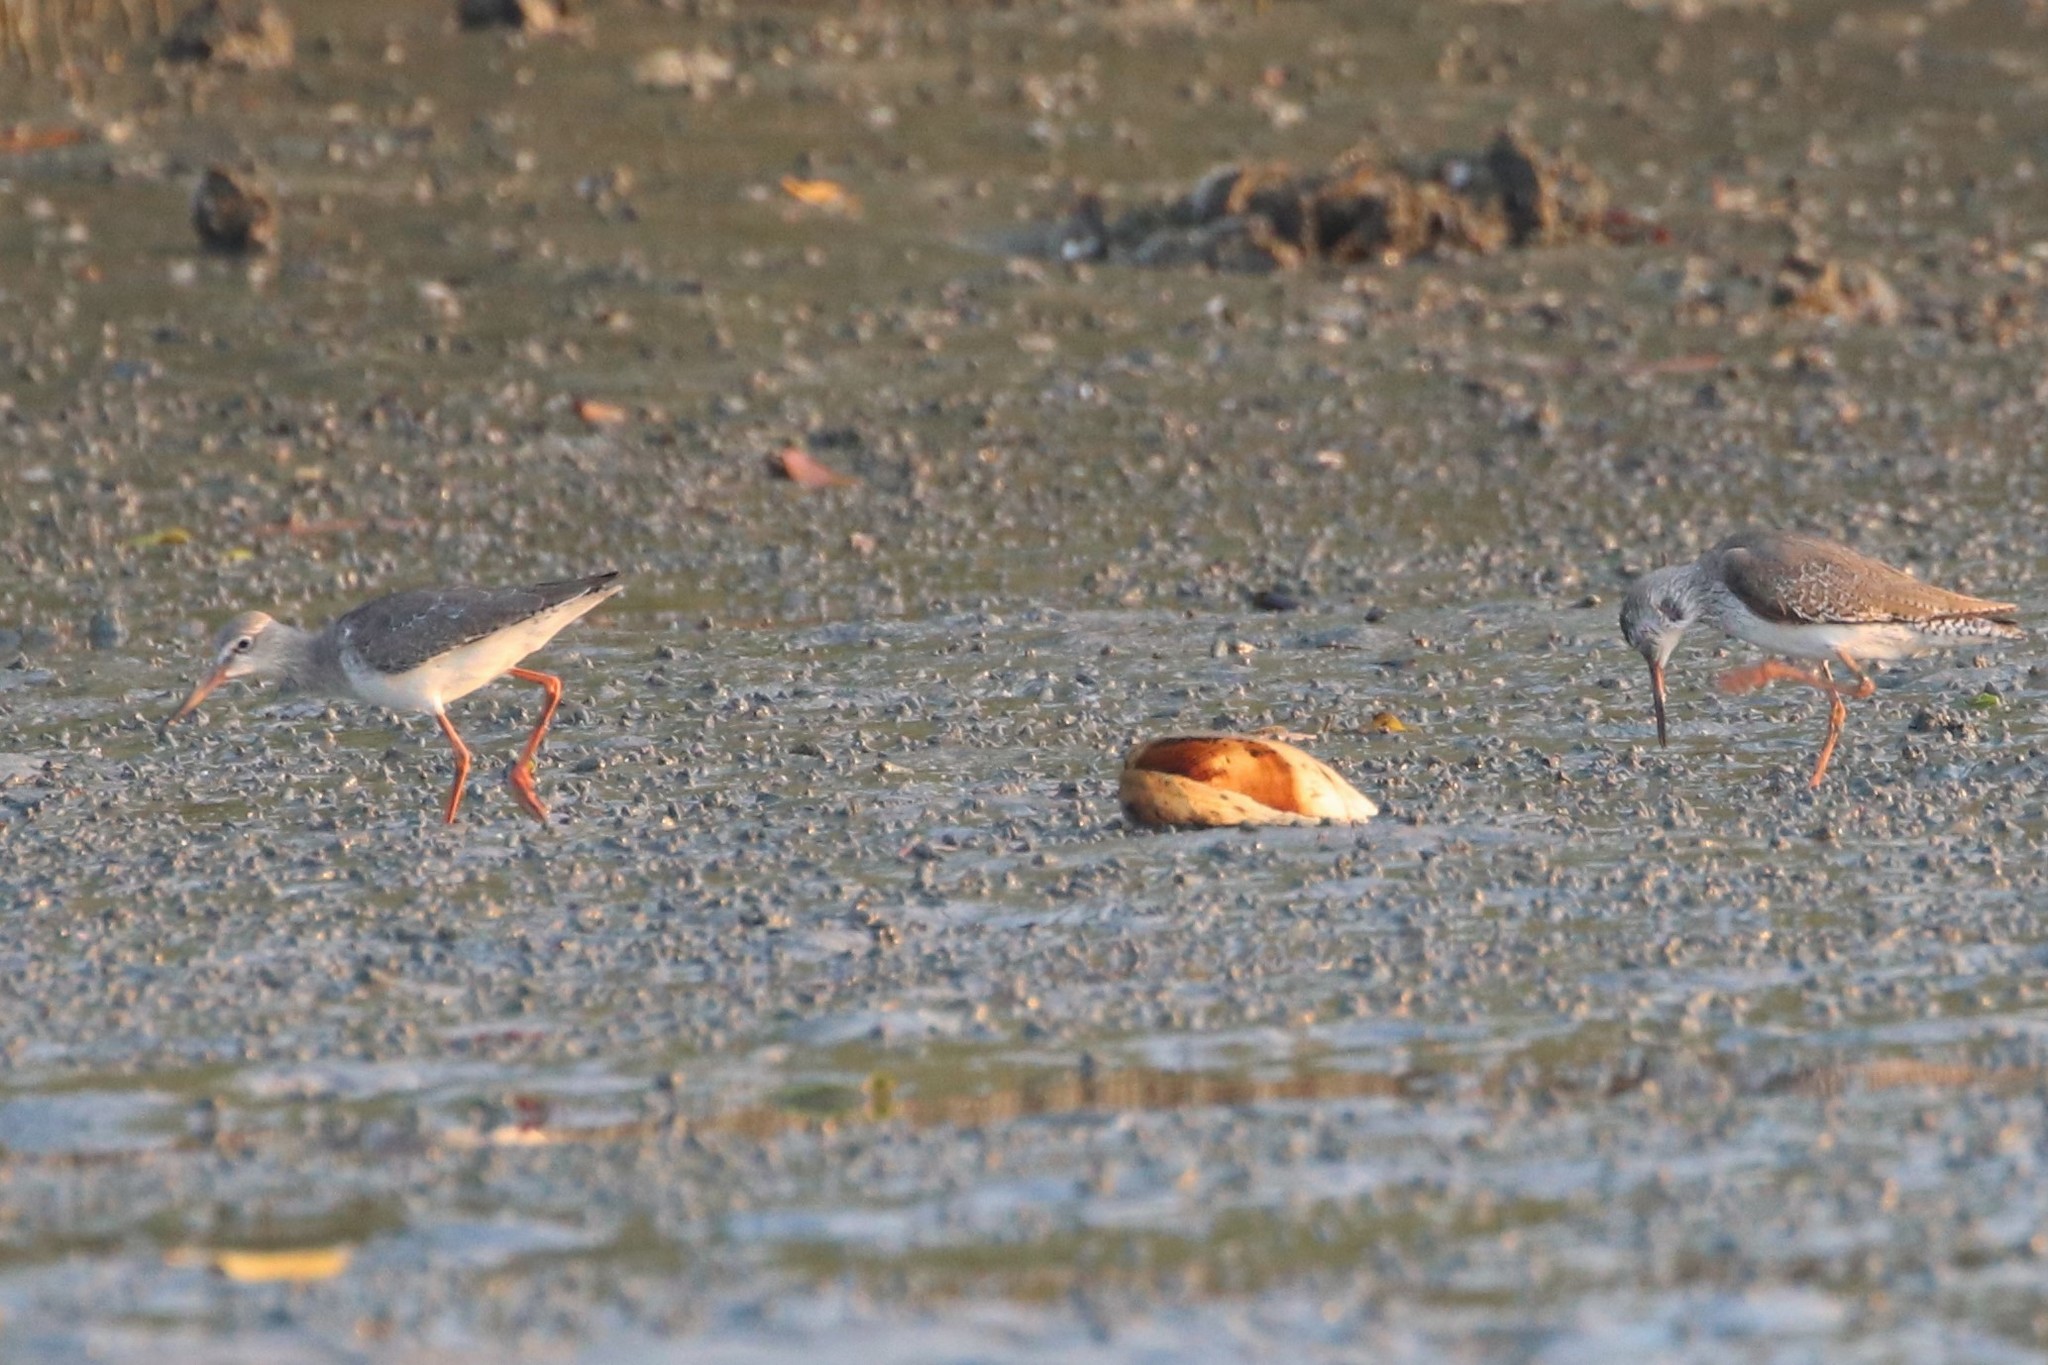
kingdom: Animalia
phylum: Chordata
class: Aves
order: Charadriiformes
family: Scolopacidae
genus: Tringa
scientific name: Tringa totanus
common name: Common redshank
